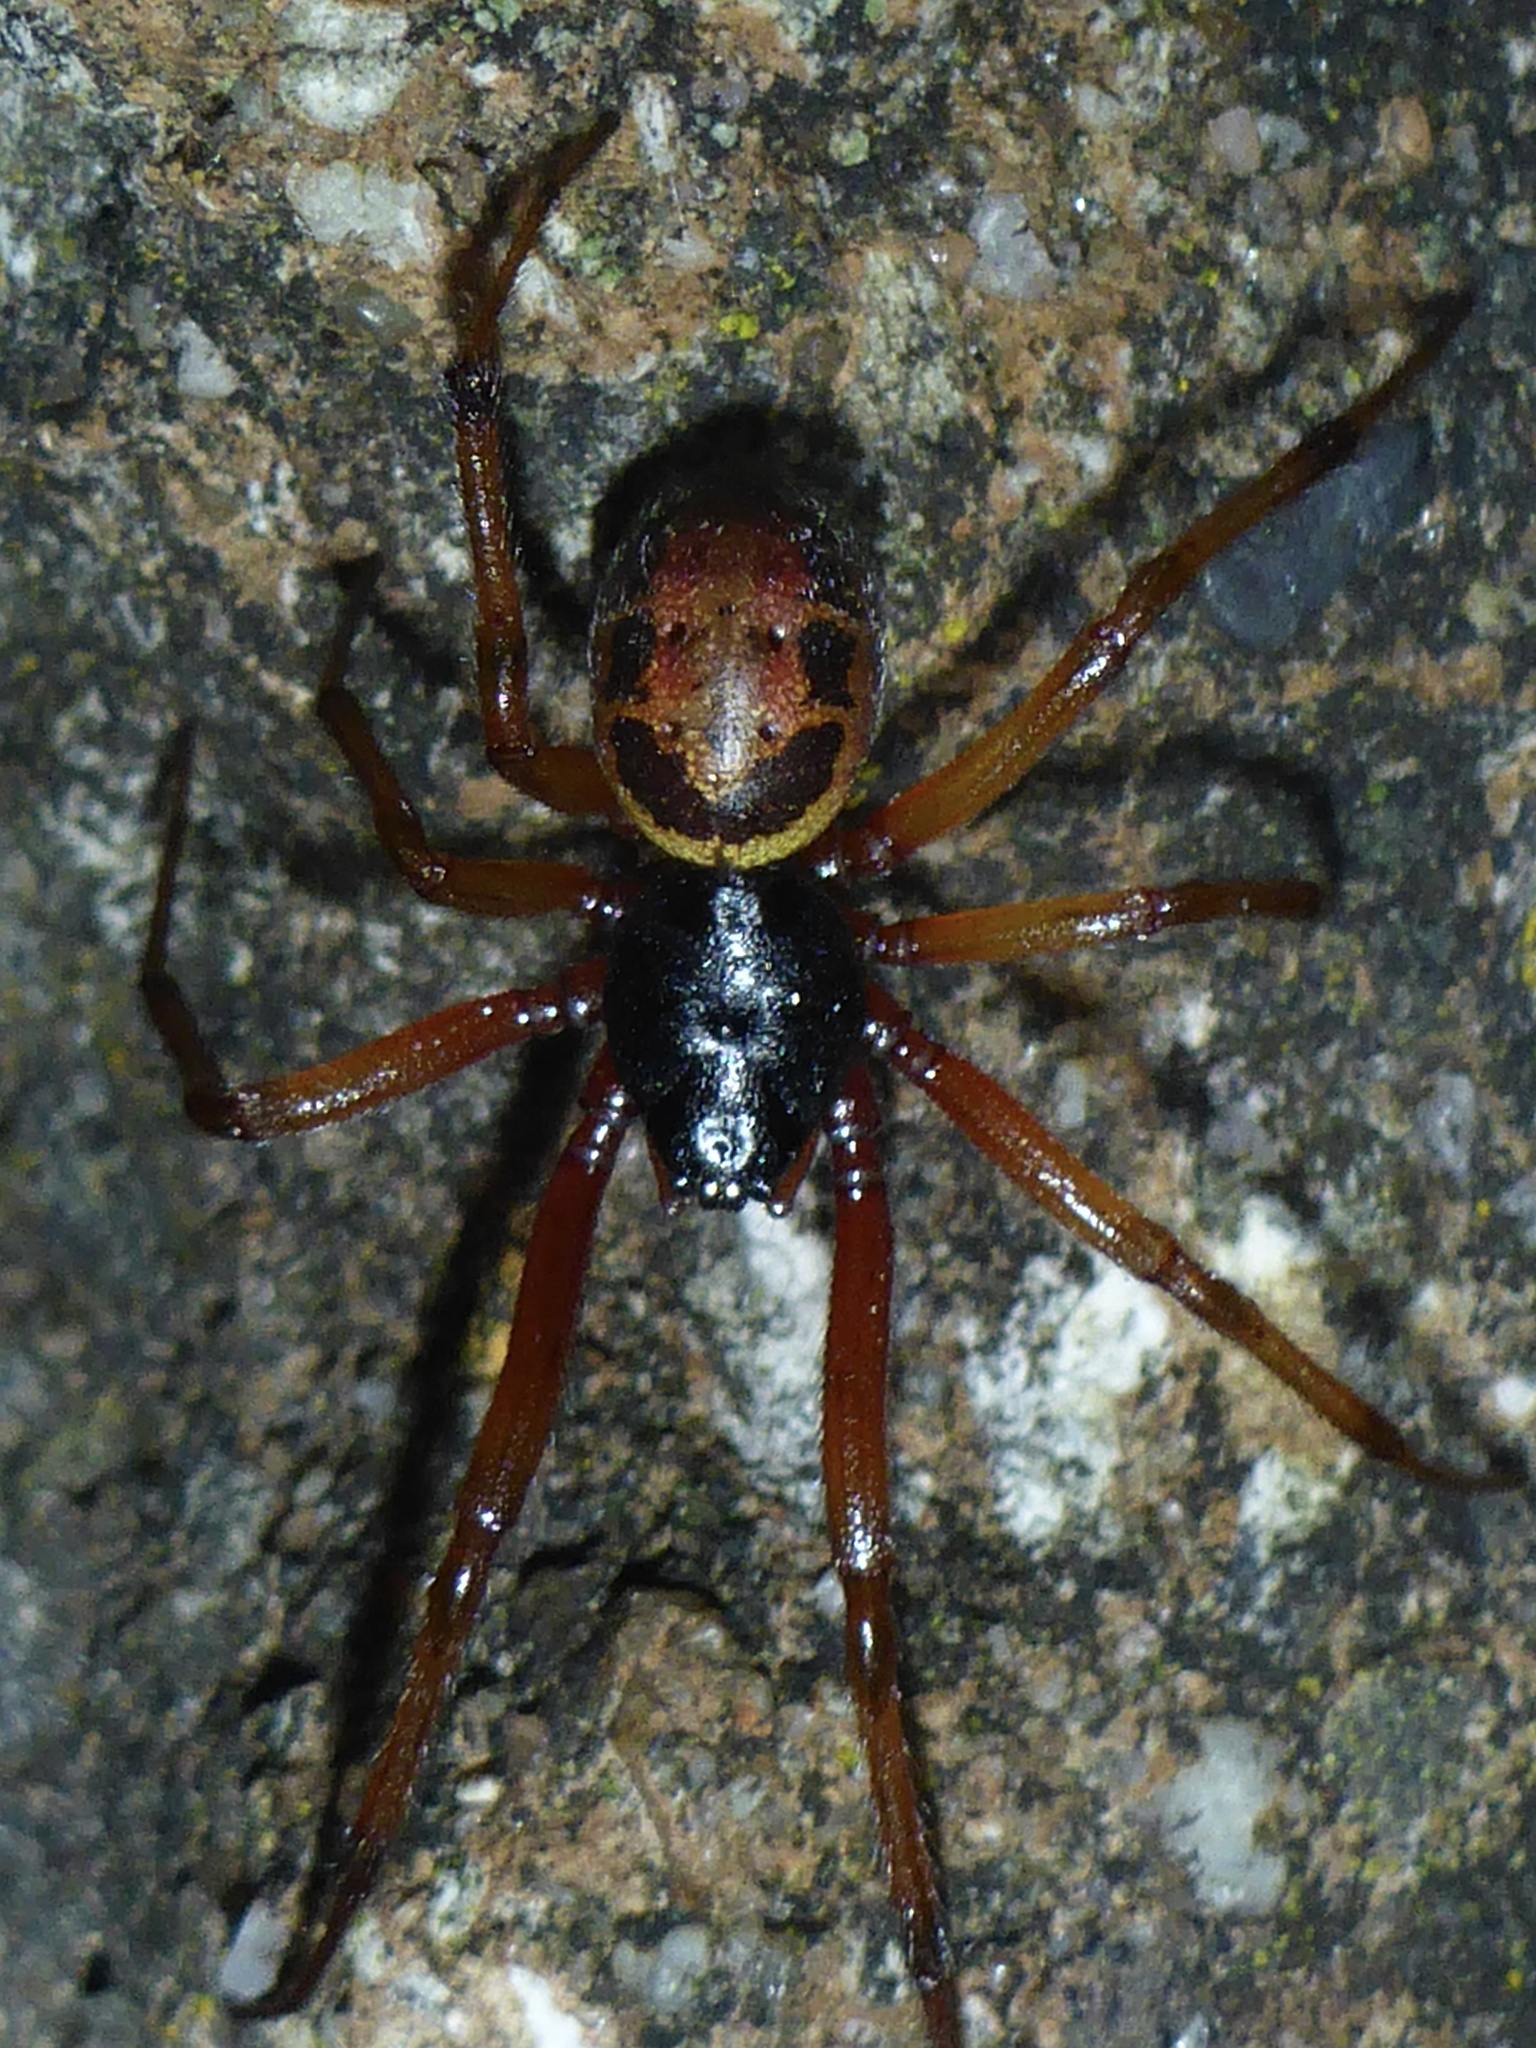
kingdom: Animalia
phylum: Arthropoda
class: Arachnida
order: Araneae
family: Theridiidae
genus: Steatoda
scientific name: Steatoda nobilis
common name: Cobweb weaver
